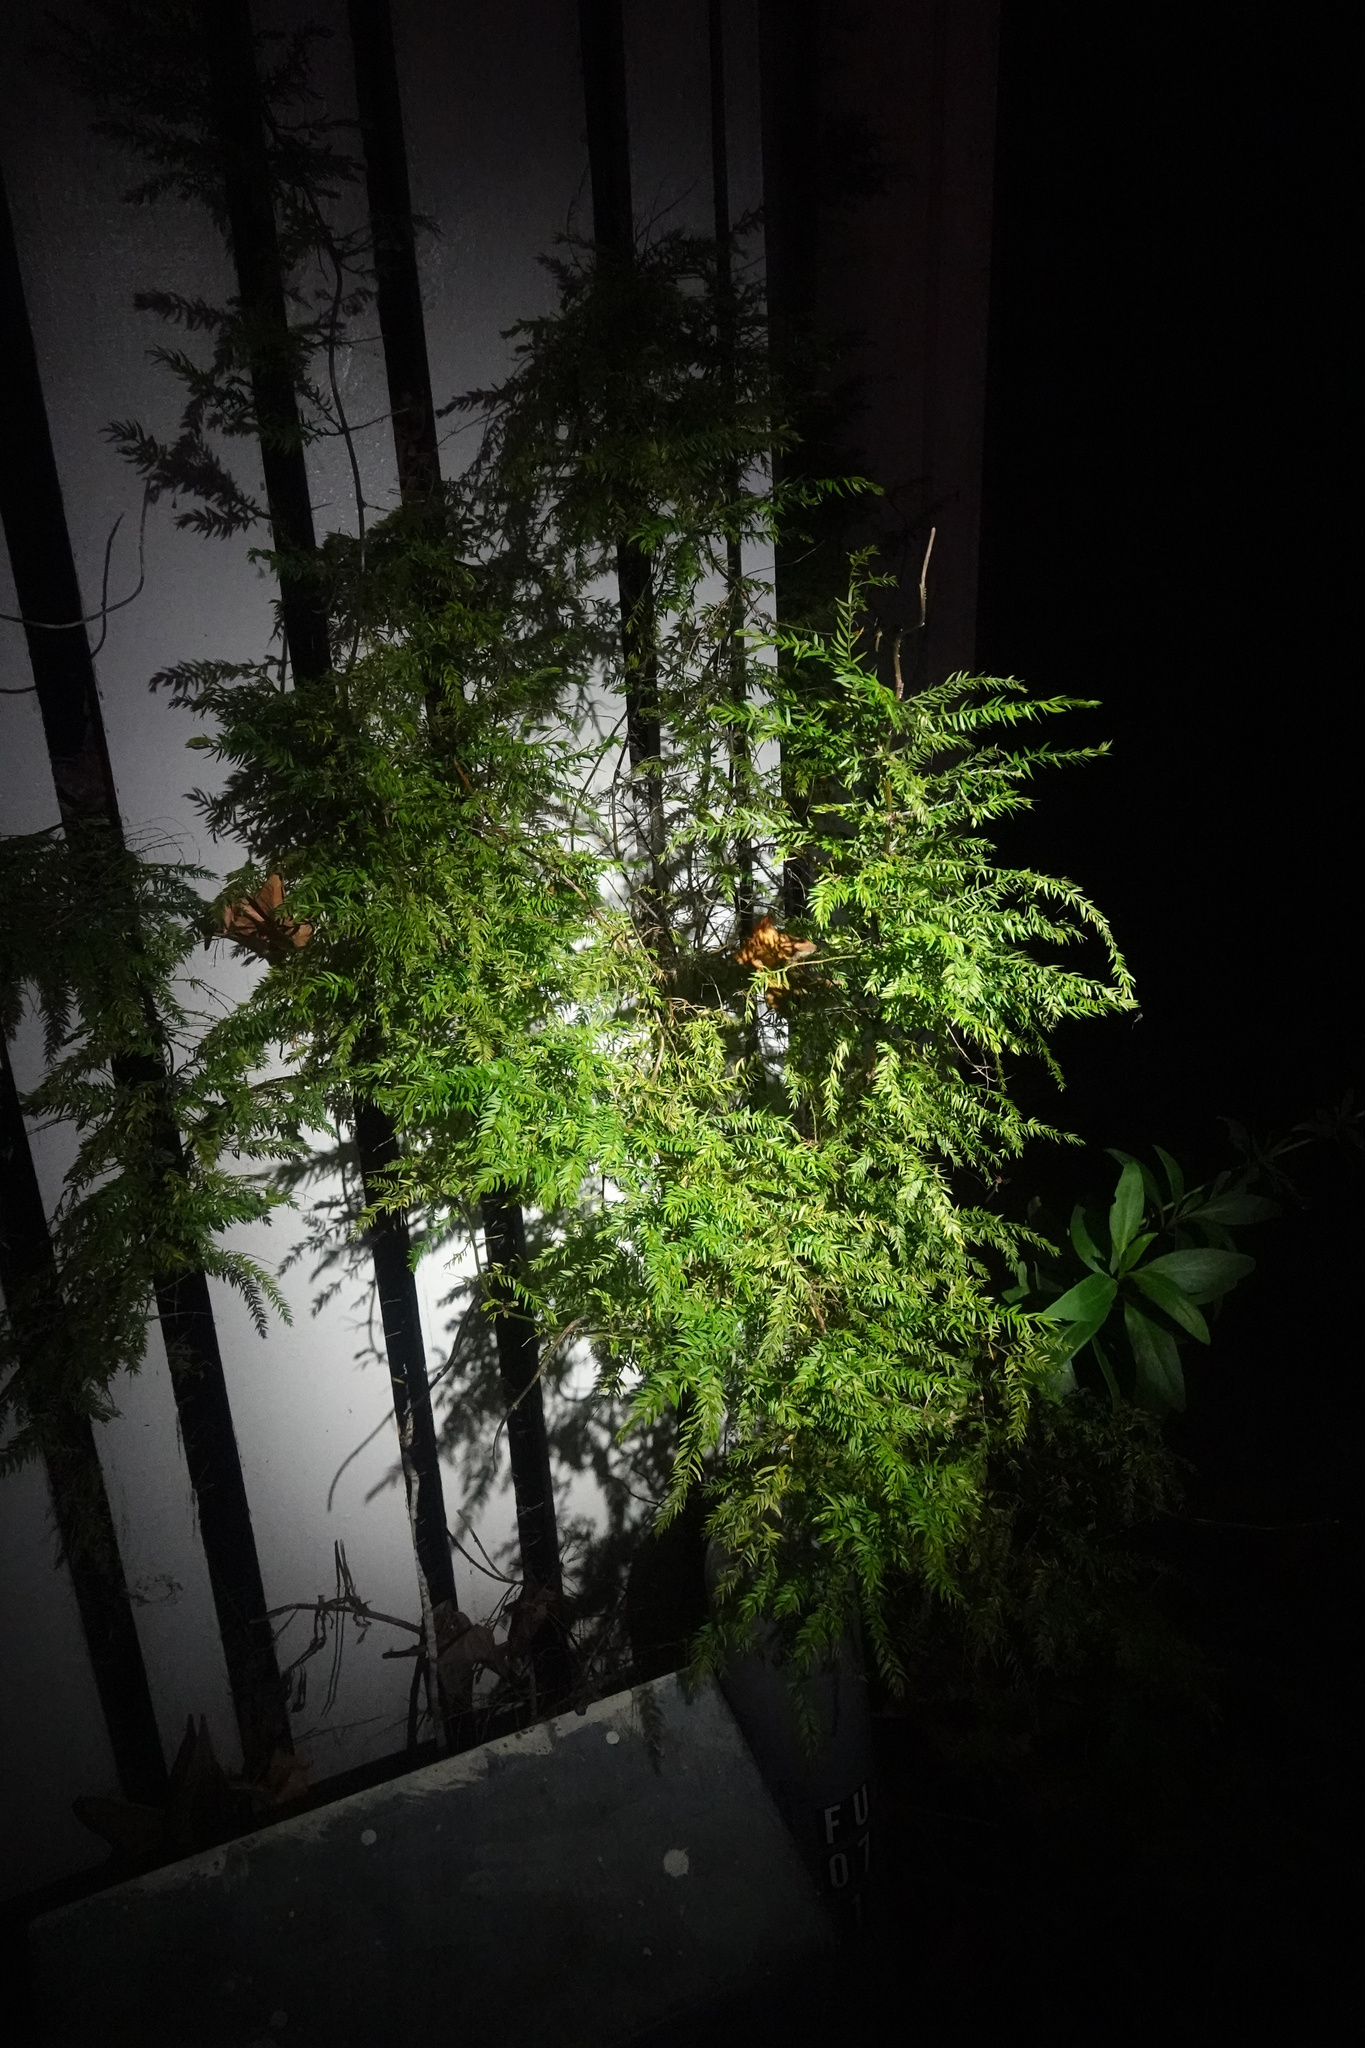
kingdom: Plantae
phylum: Tracheophyta
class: Liliopsida
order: Asparagales
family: Asparagaceae
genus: Asparagus
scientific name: Asparagus scandens
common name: Asparagus-fern
